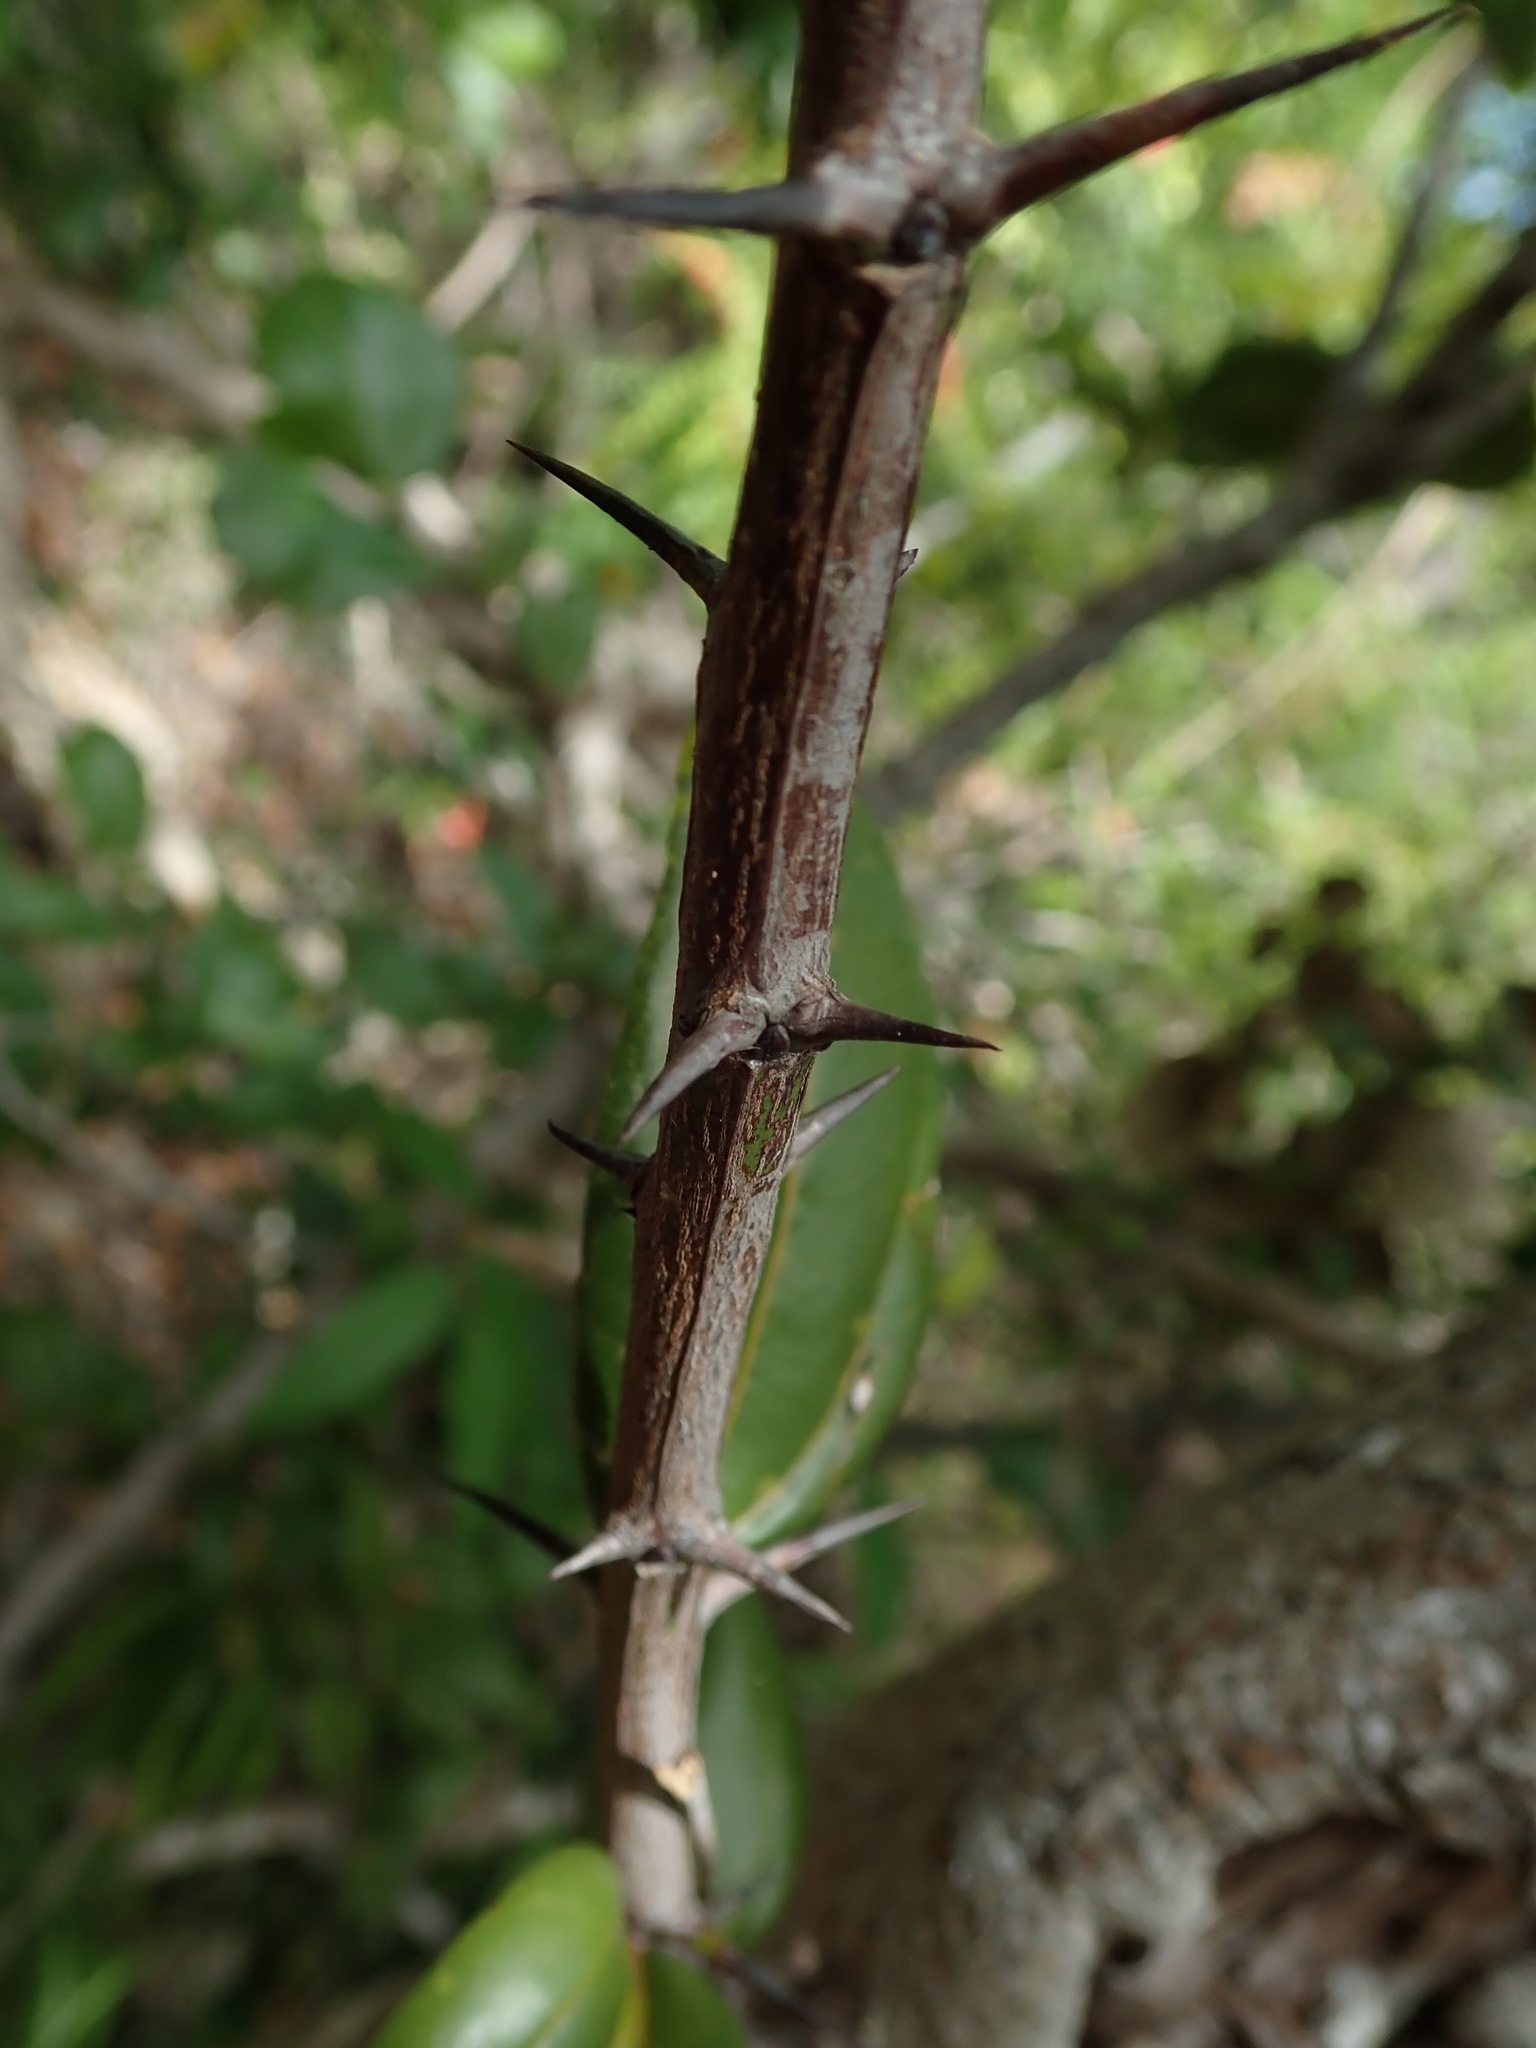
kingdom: Plantae
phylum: Tracheophyta
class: Magnoliopsida
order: Rosales
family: Rhamnaceae
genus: Sarcomphalus
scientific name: Sarcomphalus domingensis
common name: Thorn
